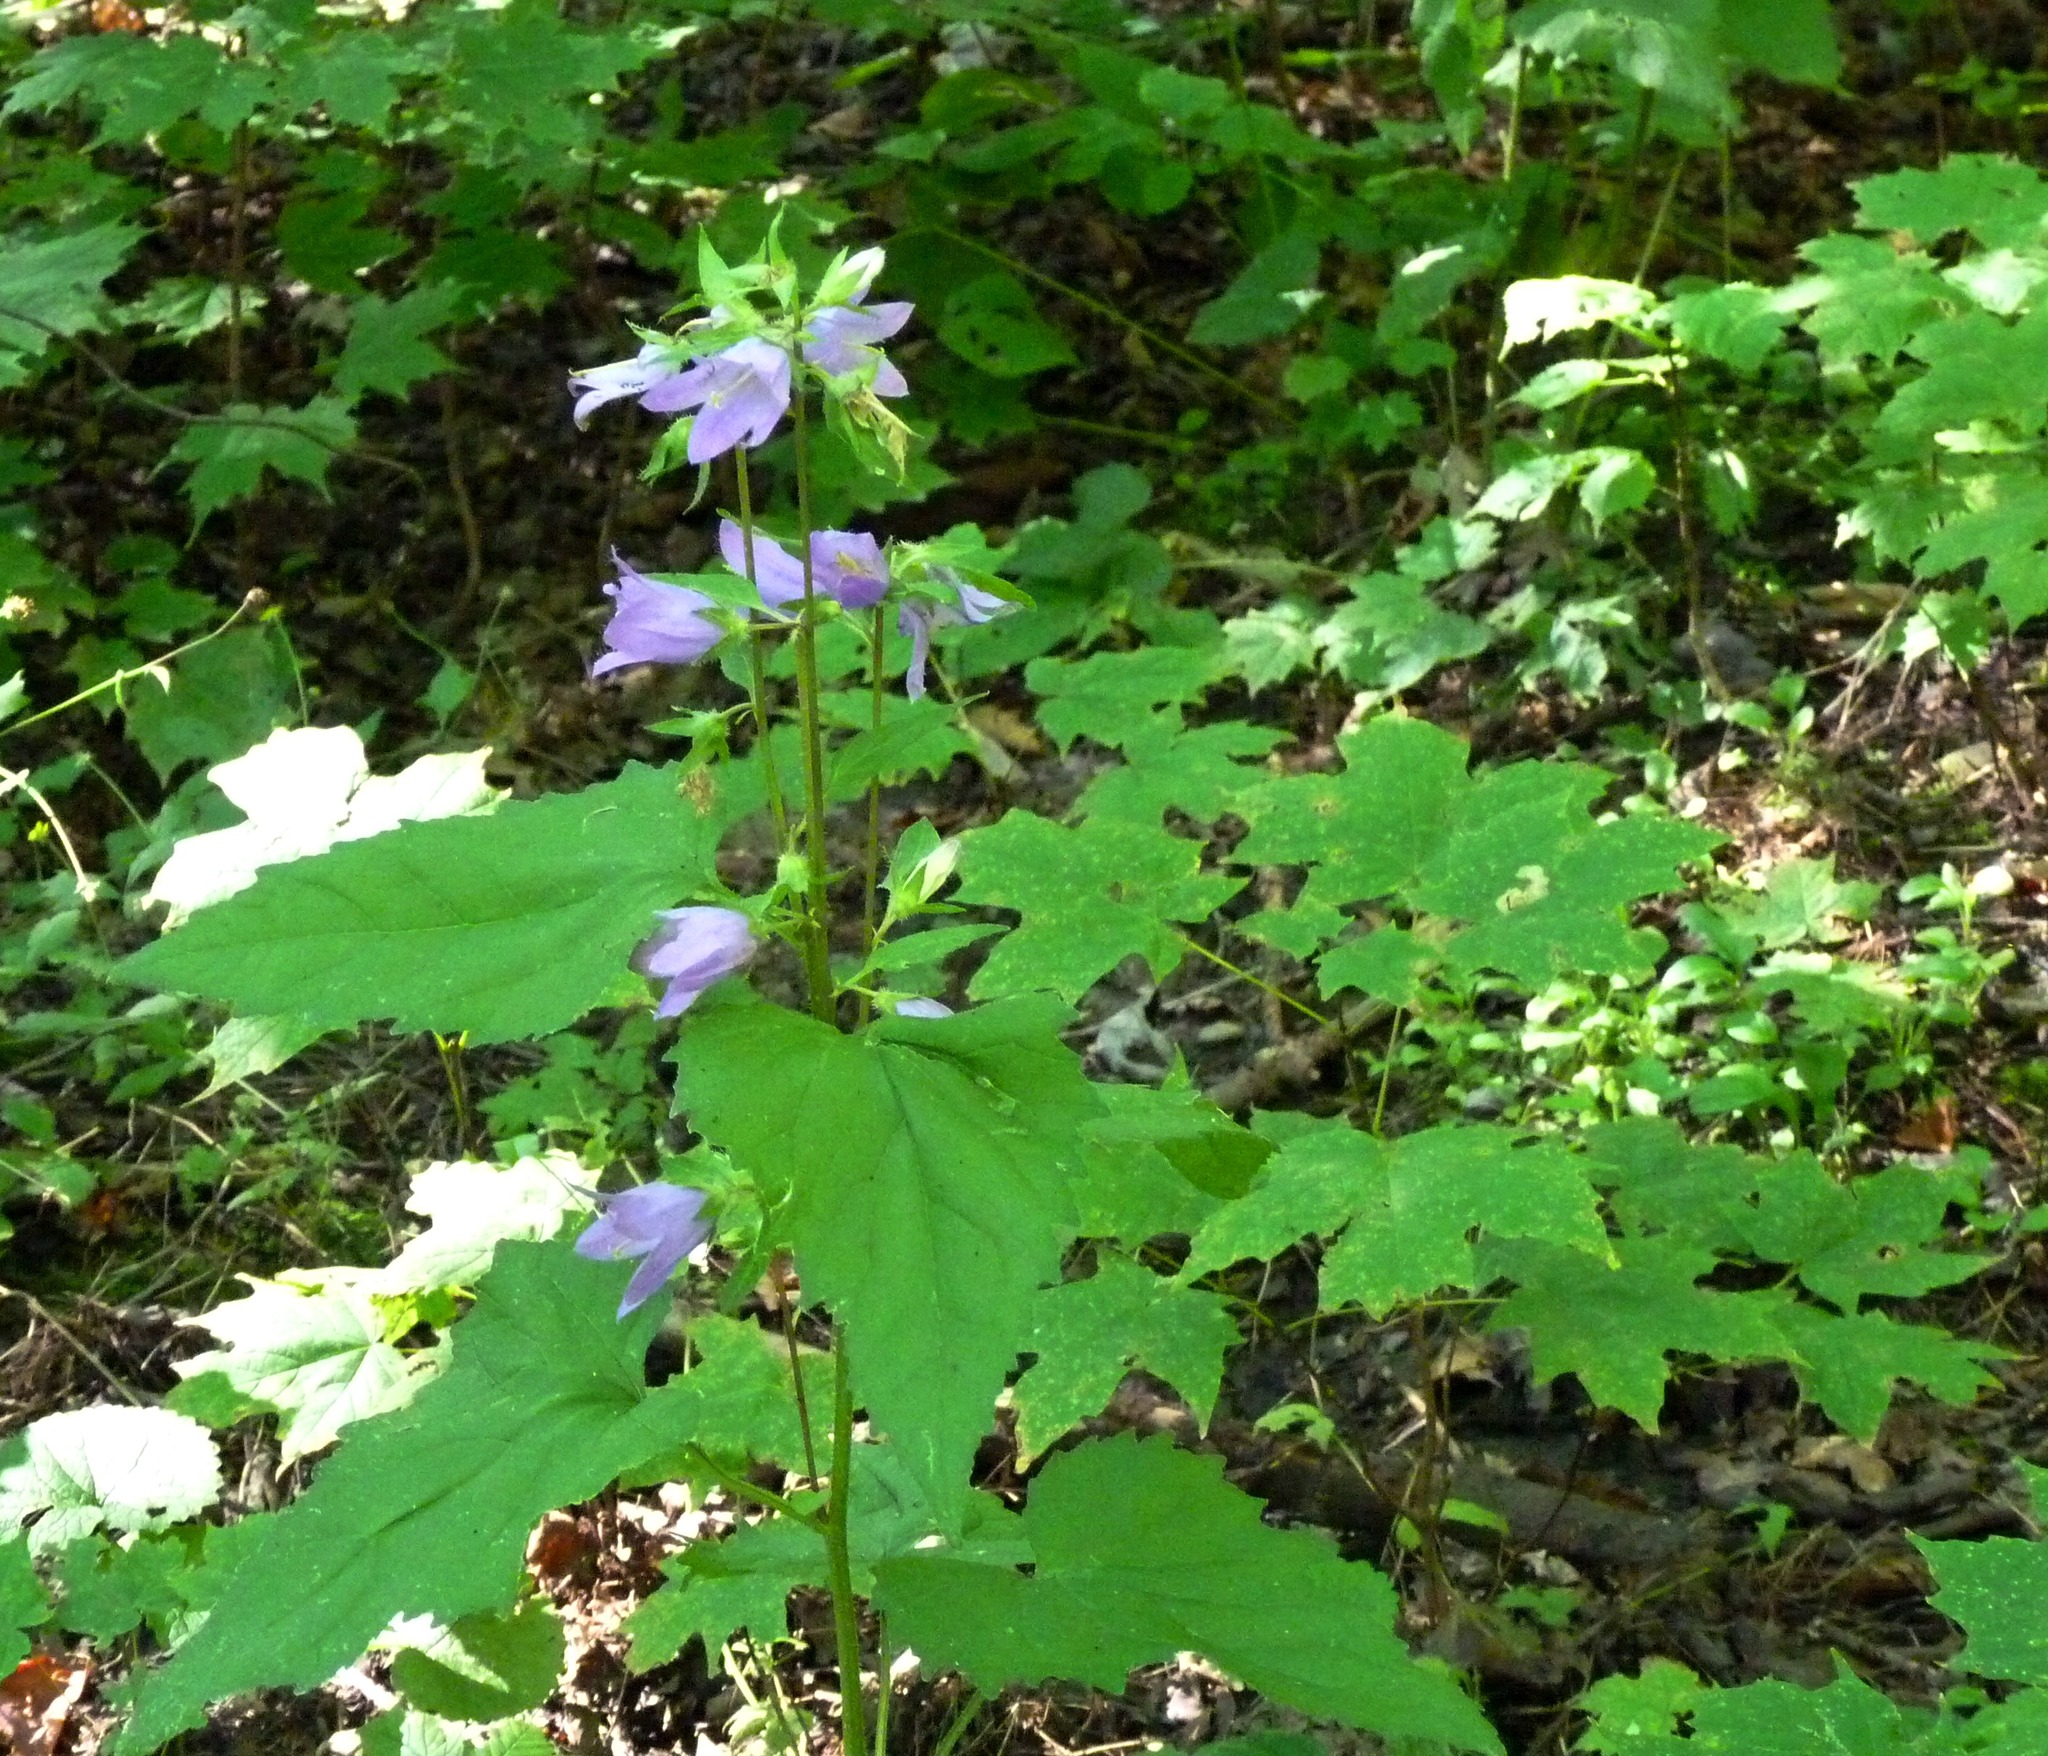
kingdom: Plantae
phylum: Tracheophyta
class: Magnoliopsida
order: Asterales
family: Campanulaceae
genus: Campanula
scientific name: Campanula trachelium
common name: Nettle-leaved bellflower
